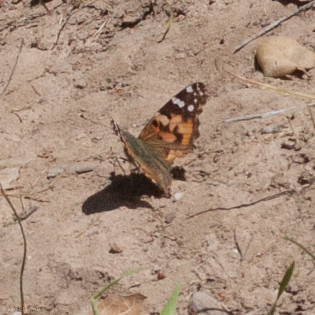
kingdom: Animalia
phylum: Arthropoda
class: Insecta
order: Lepidoptera
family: Nymphalidae
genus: Vanessa
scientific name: Vanessa cardui
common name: Painted lady
